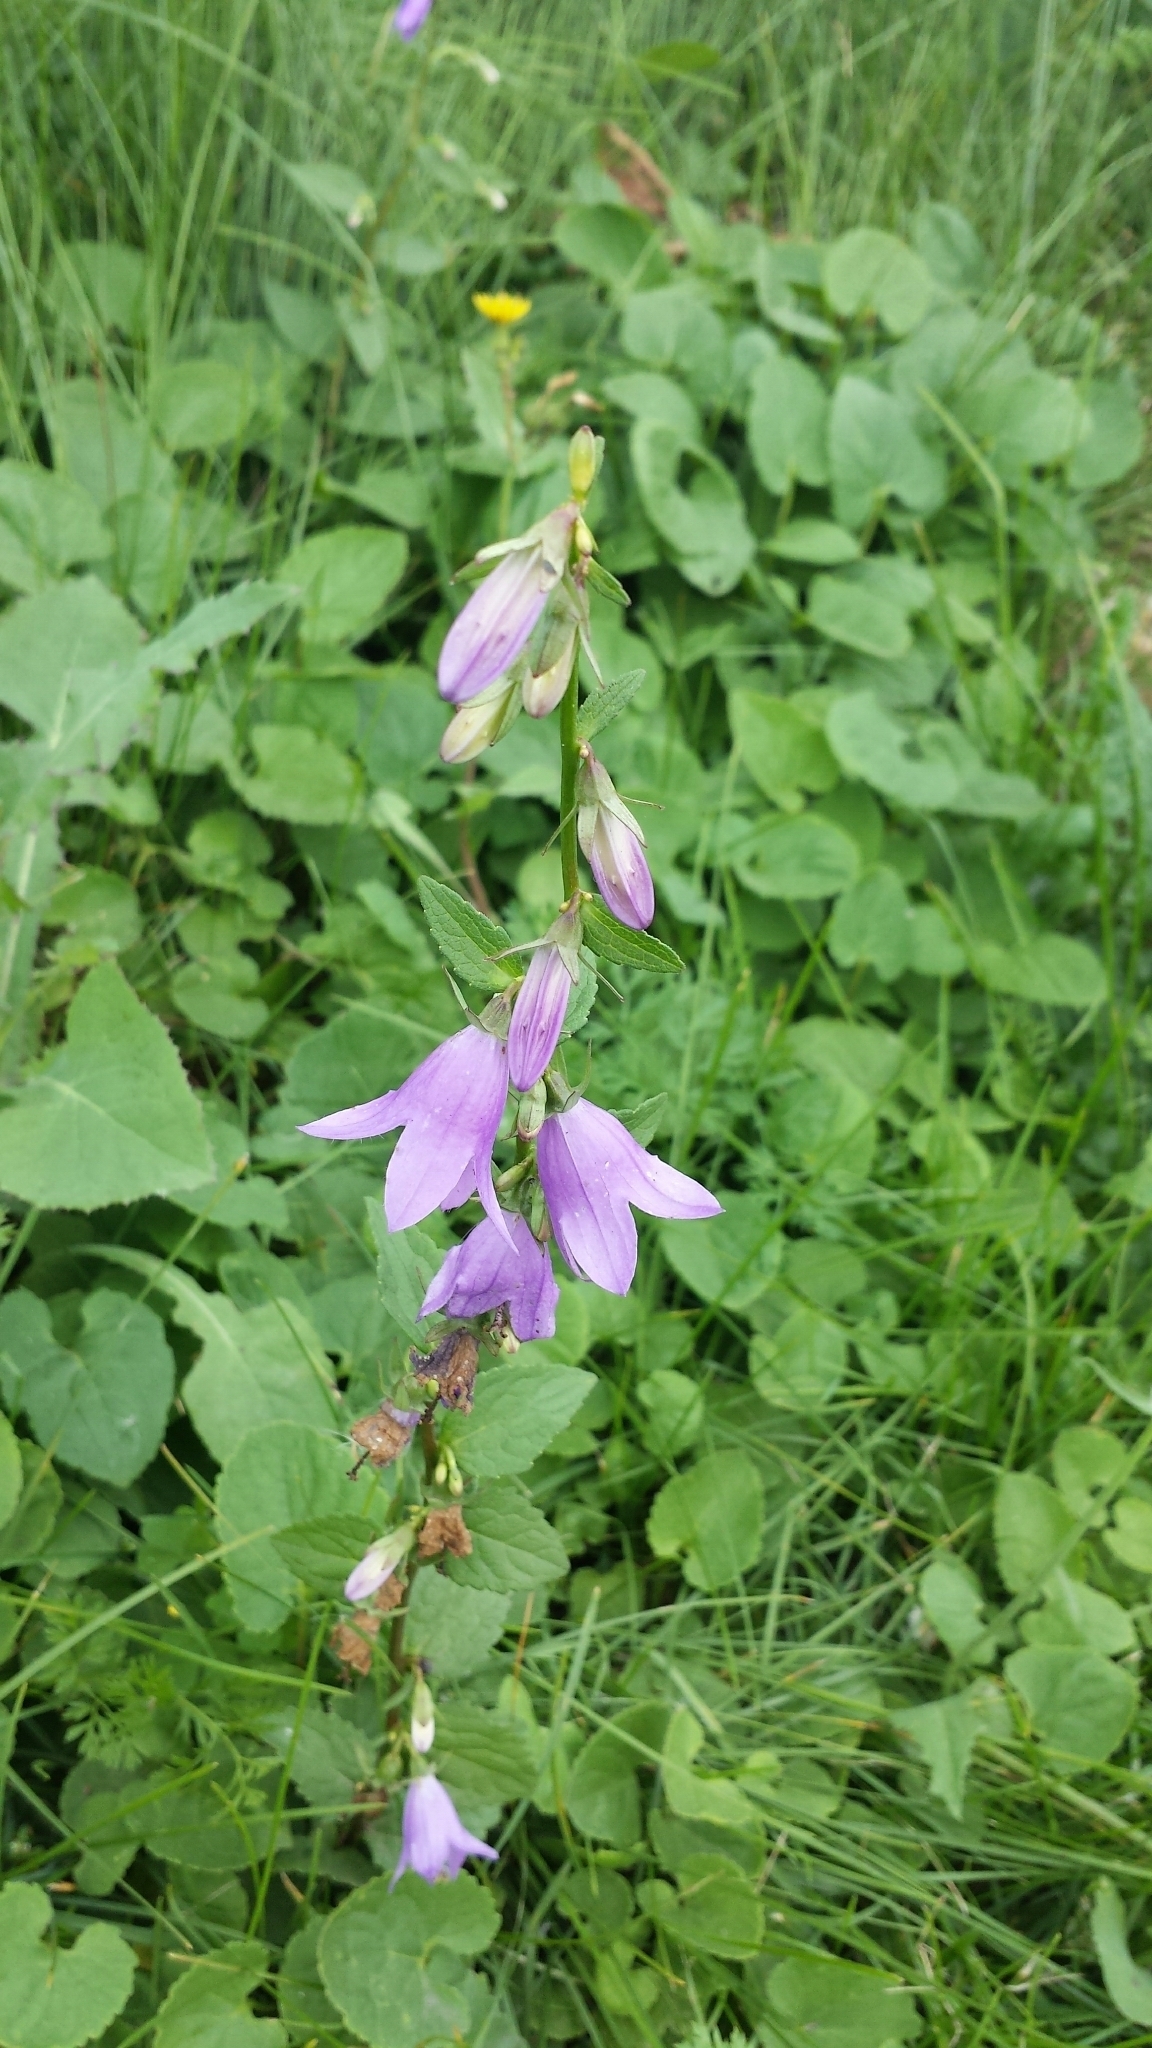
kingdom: Plantae
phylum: Tracheophyta
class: Magnoliopsida
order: Asterales
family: Campanulaceae
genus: Campanula
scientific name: Campanula rapunculoides
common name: Creeping bellflower
